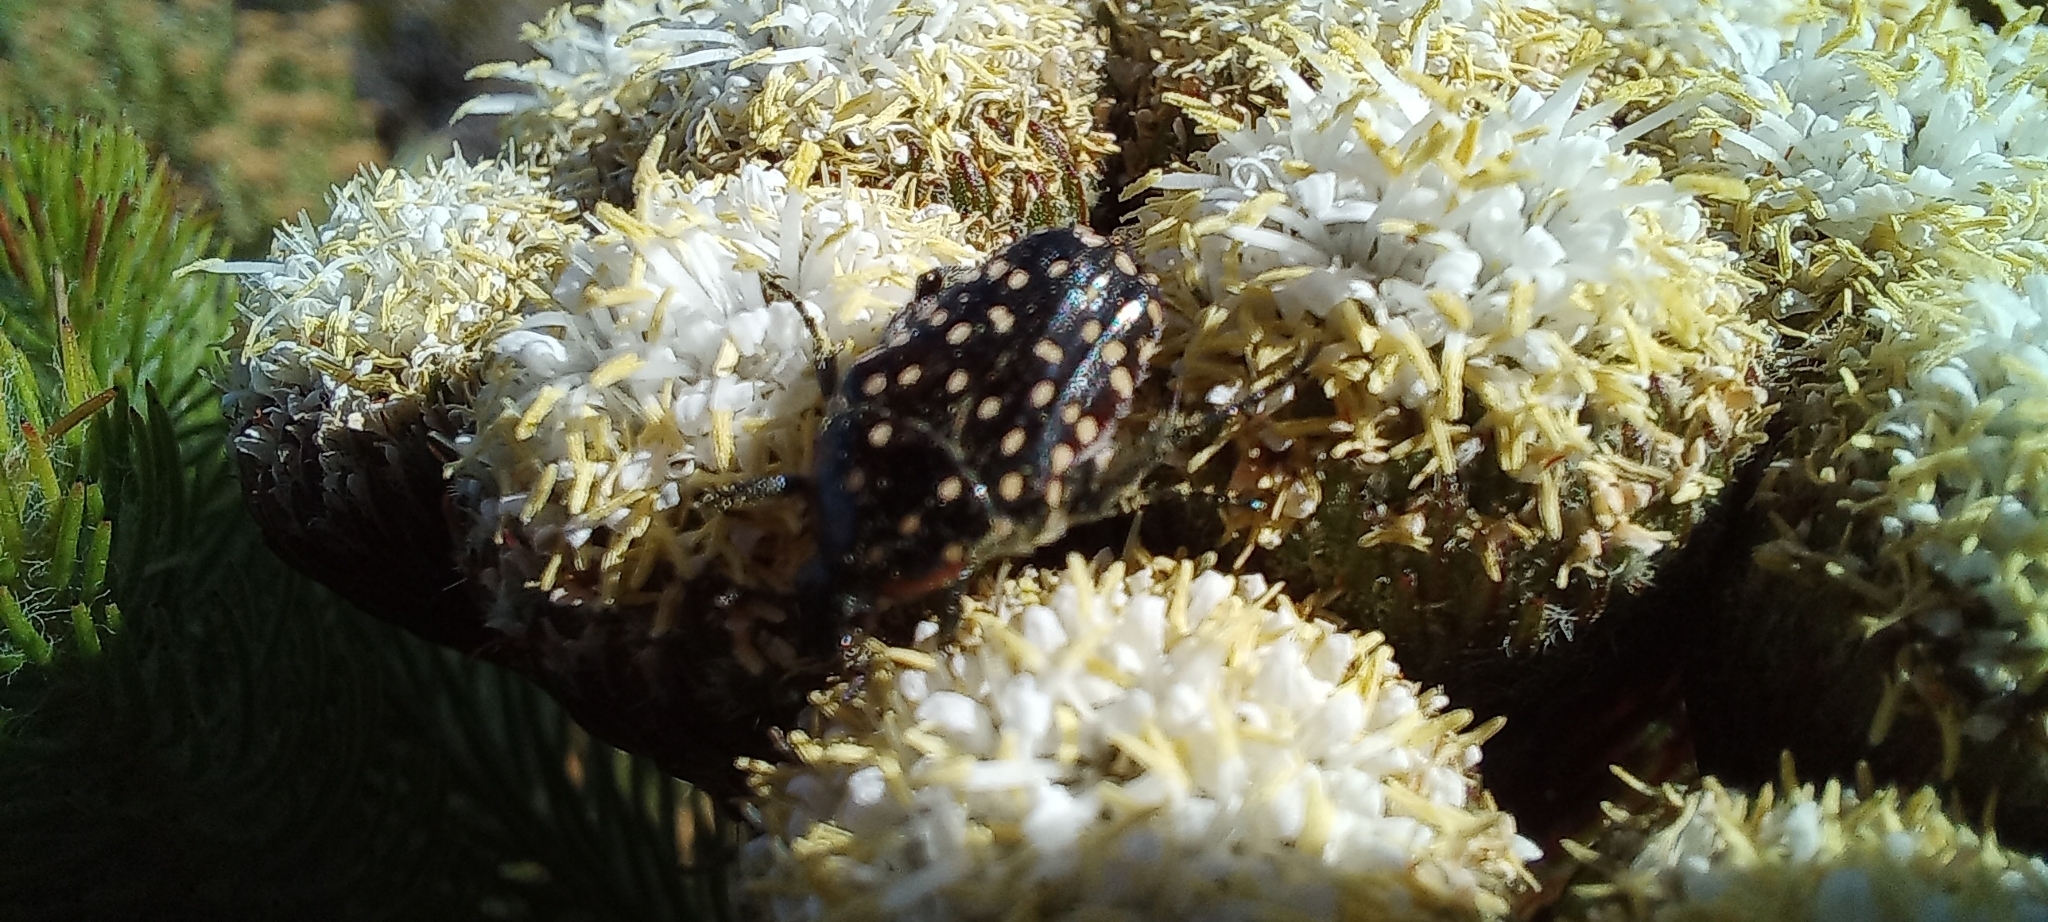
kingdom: Animalia
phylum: Arthropoda
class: Insecta
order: Coleoptera
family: Scarabaeidae
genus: Oxythyrea
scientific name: Oxythyrea
